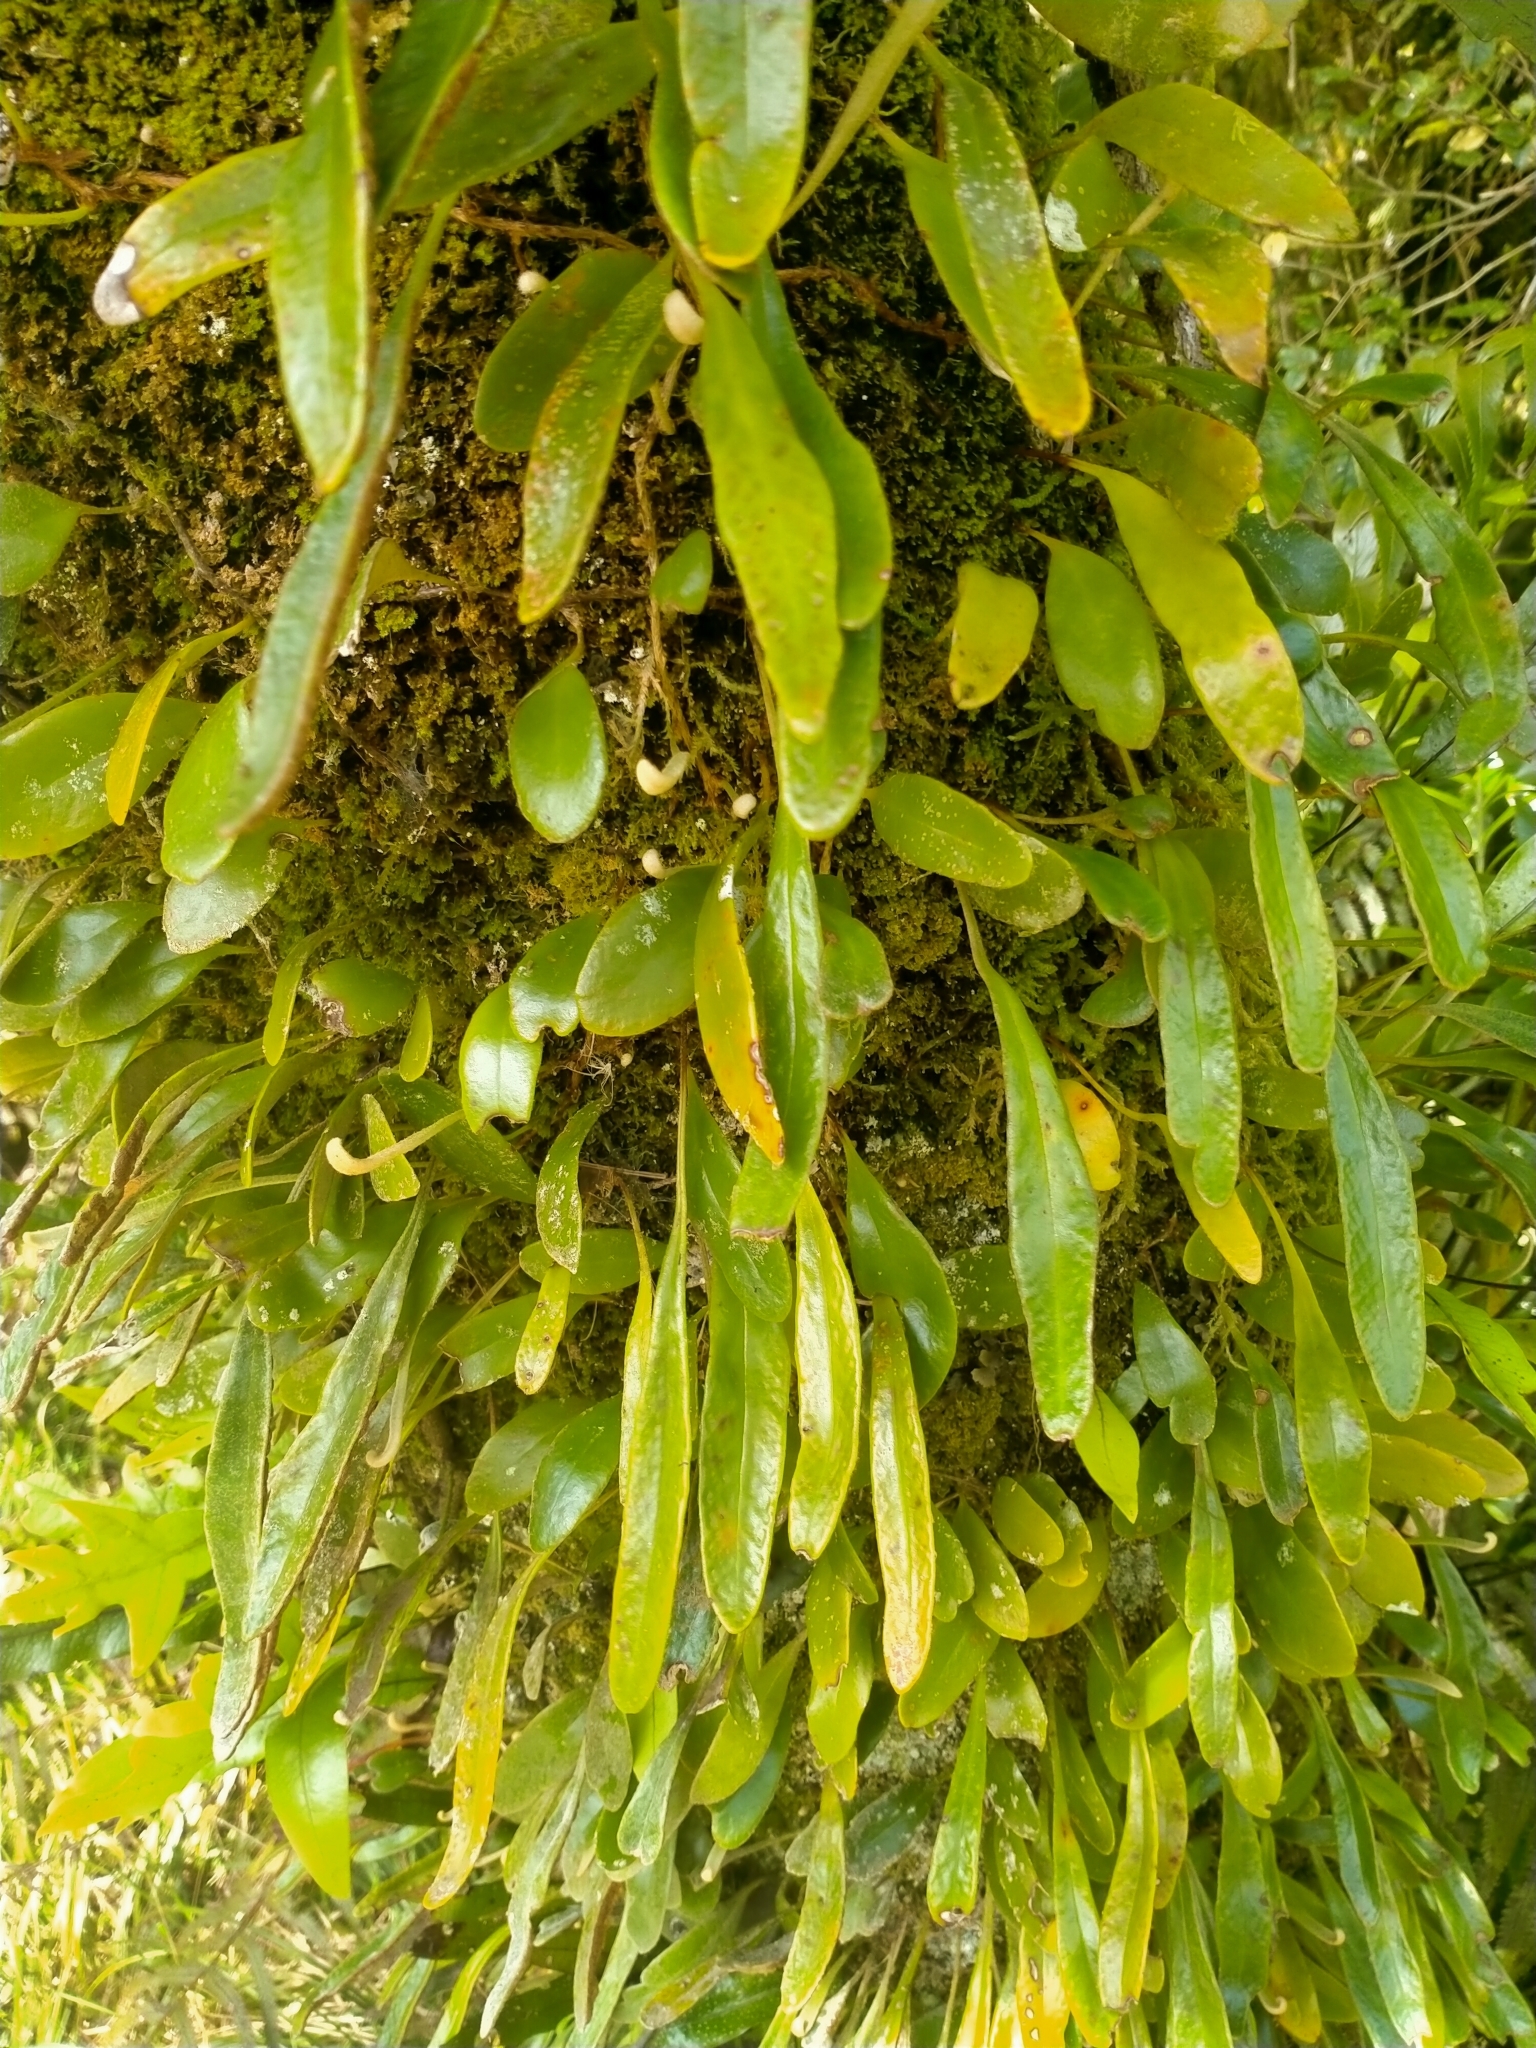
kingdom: Plantae
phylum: Tracheophyta
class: Polypodiopsida
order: Polypodiales
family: Polypodiaceae
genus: Pyrrosia
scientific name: Pyrrosia eleagnifolia
